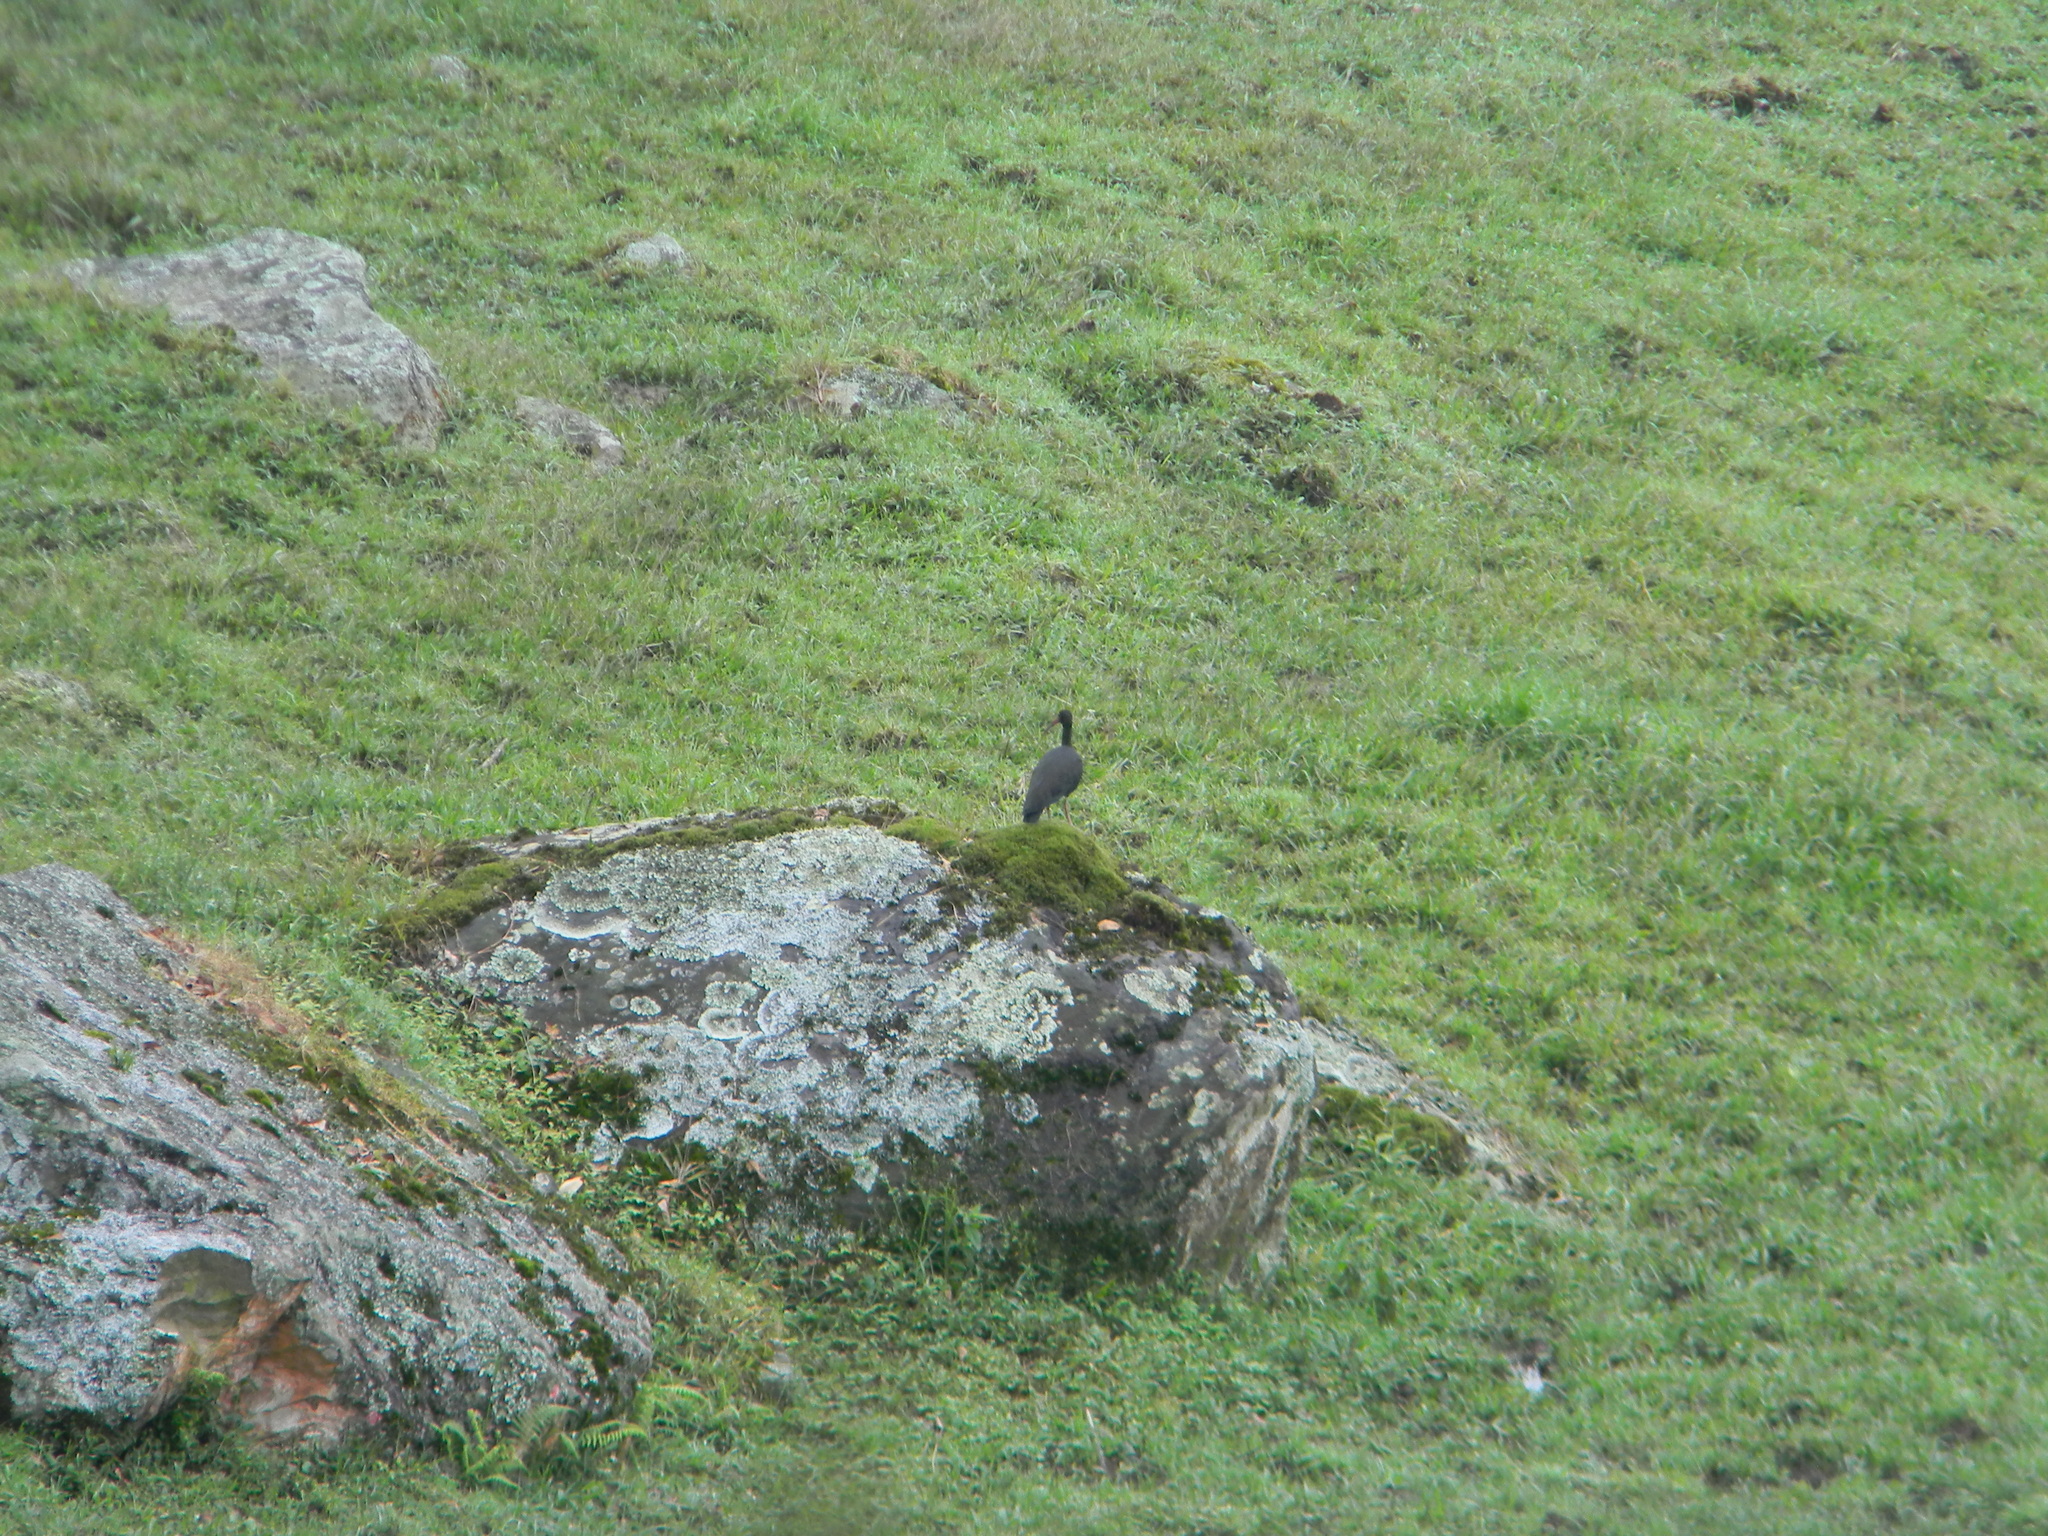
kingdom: Animalia
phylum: Chordata
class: Aves
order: Pelecaniformes
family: Threskiornithidae
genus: Phimosus
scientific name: Phimosus infuscatus
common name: Bare-faced ibis
